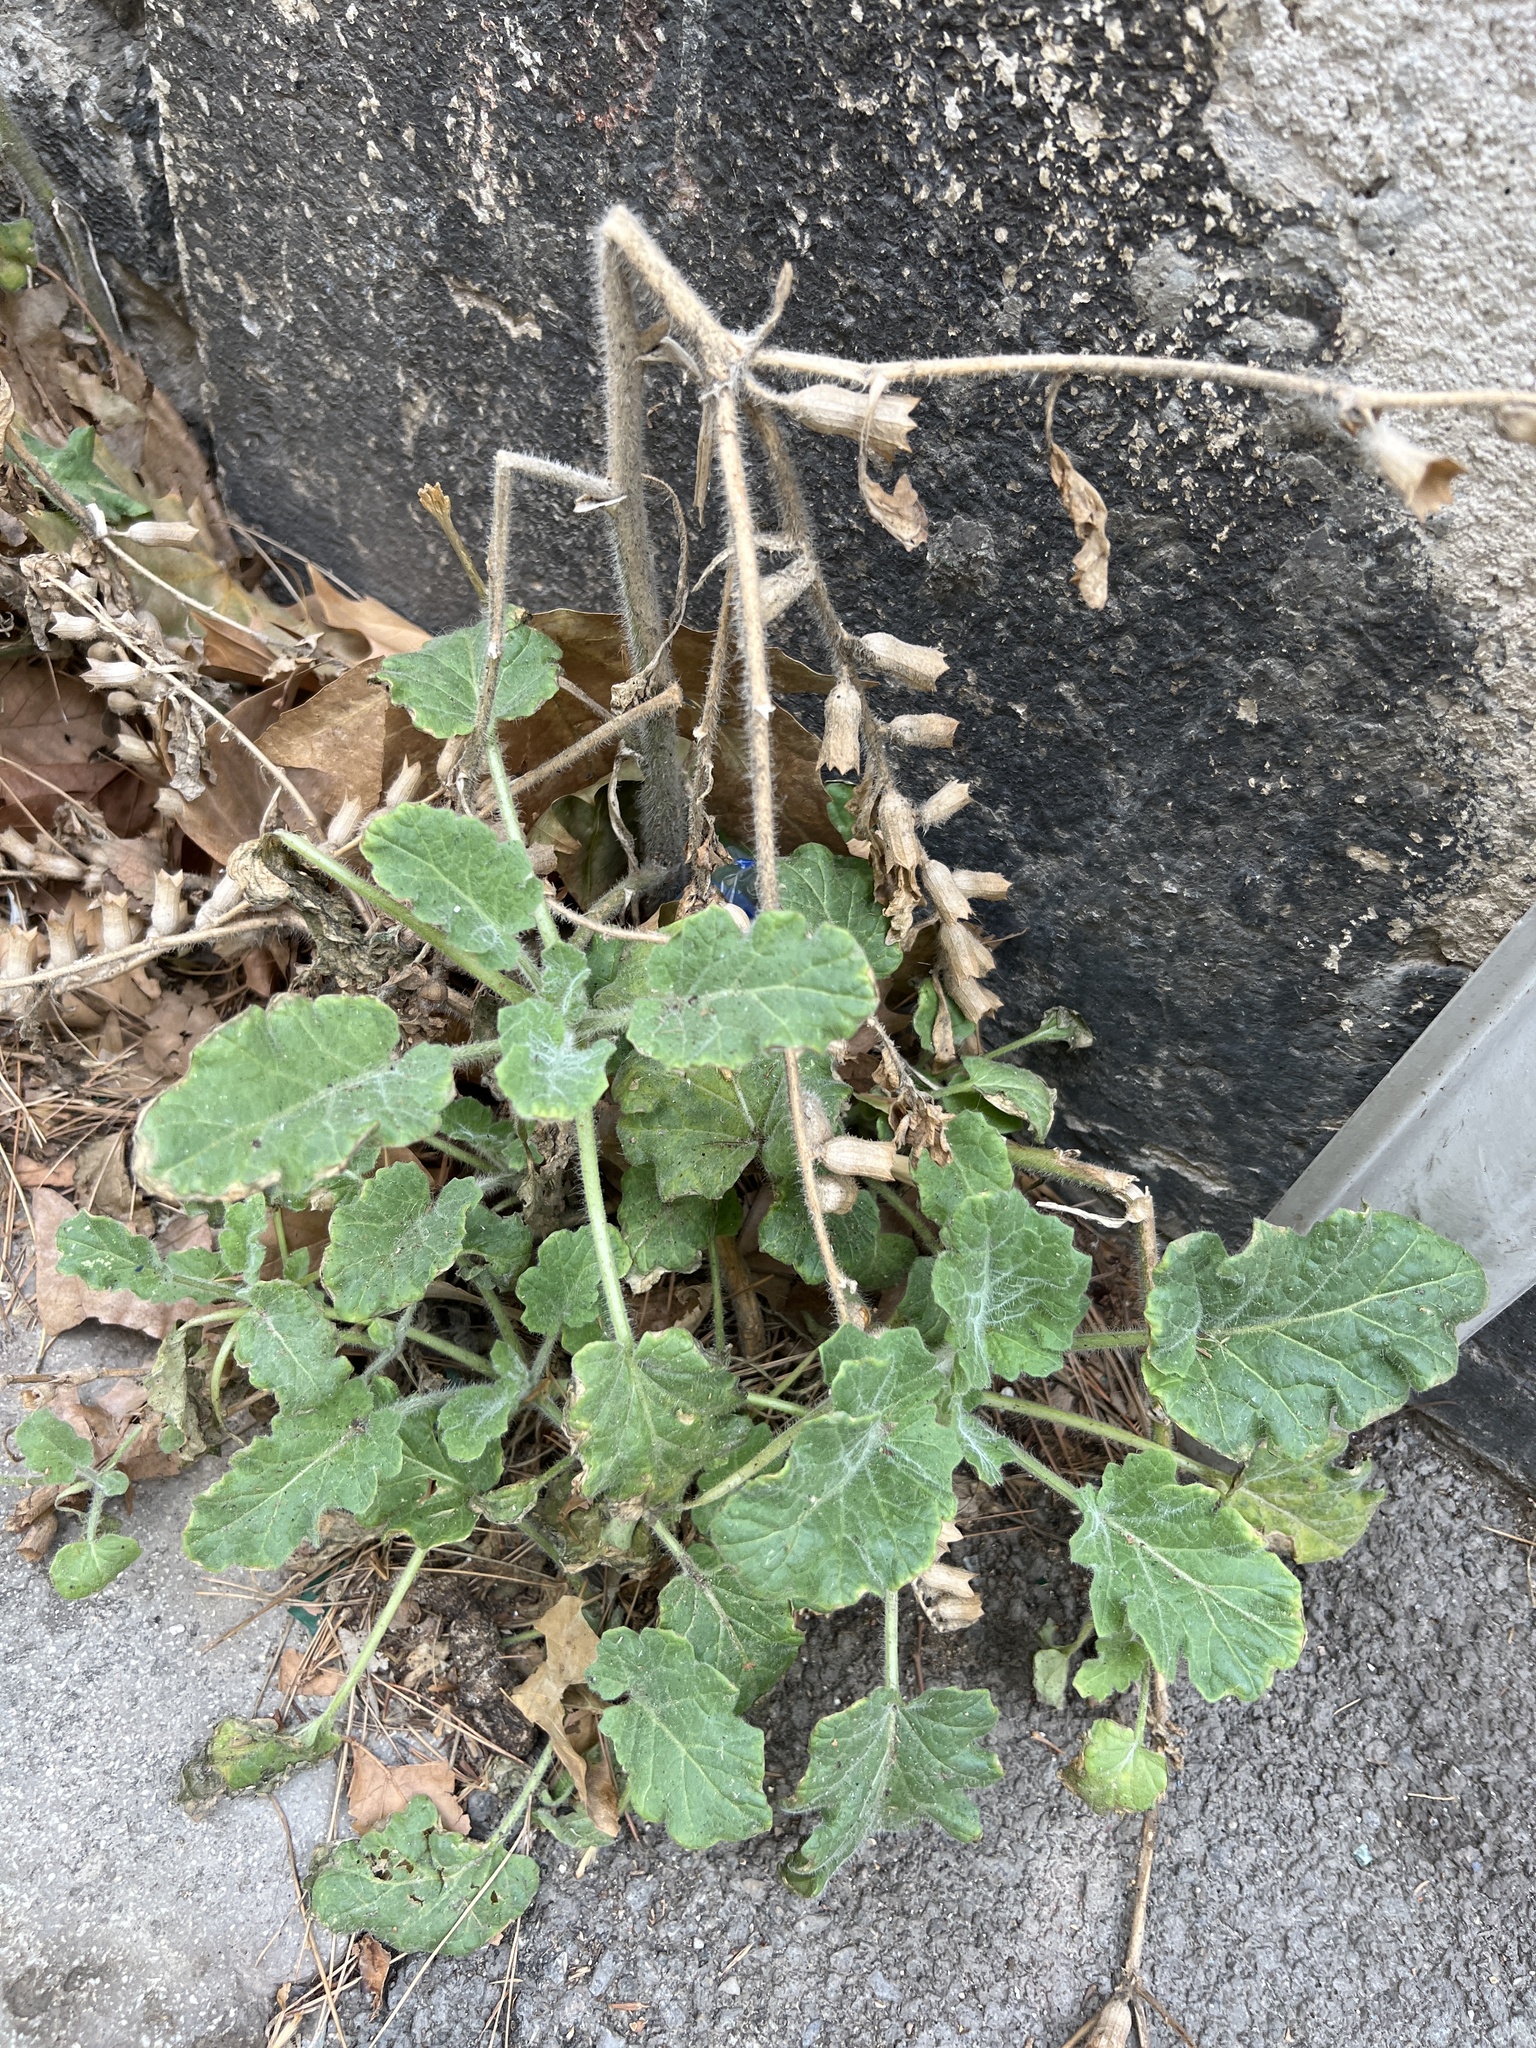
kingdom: Plantae
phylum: Tracheophyta
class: Magnoliopsida
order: Solanales
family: Solanaceae
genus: Hyoscyamus
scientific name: Hyoscyamus albus
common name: White henbane
